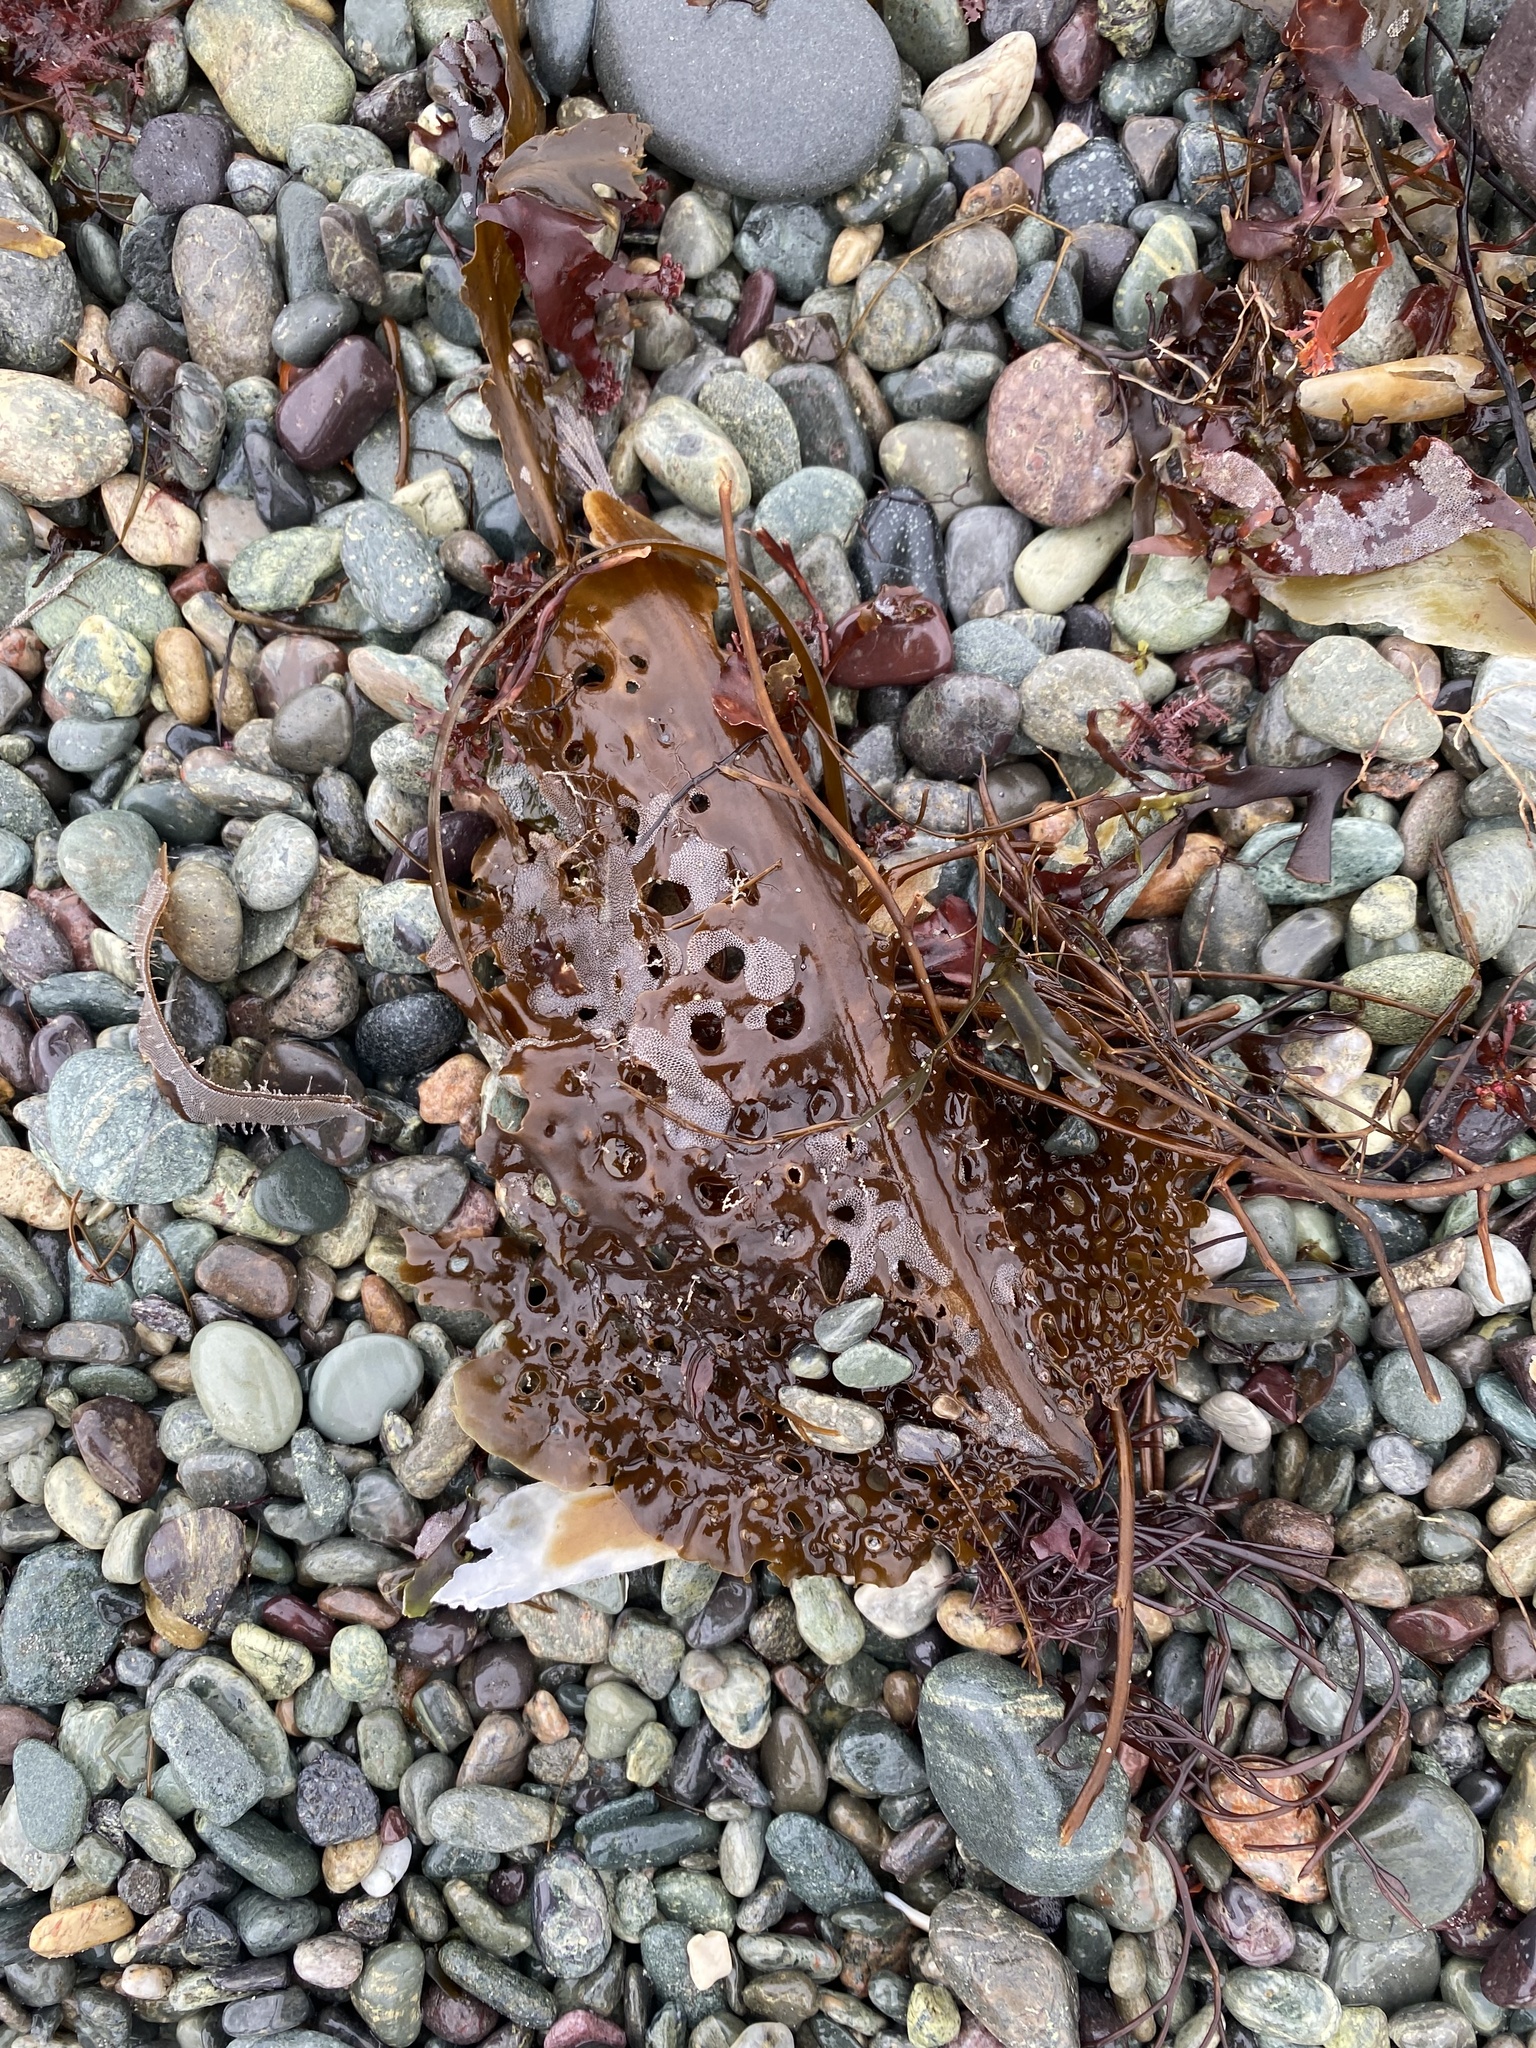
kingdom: Chromista
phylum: Ochrophyta
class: Phaeophyceae
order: Laminariales
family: Costariaceae
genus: Agarum
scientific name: Agarum clathratum
